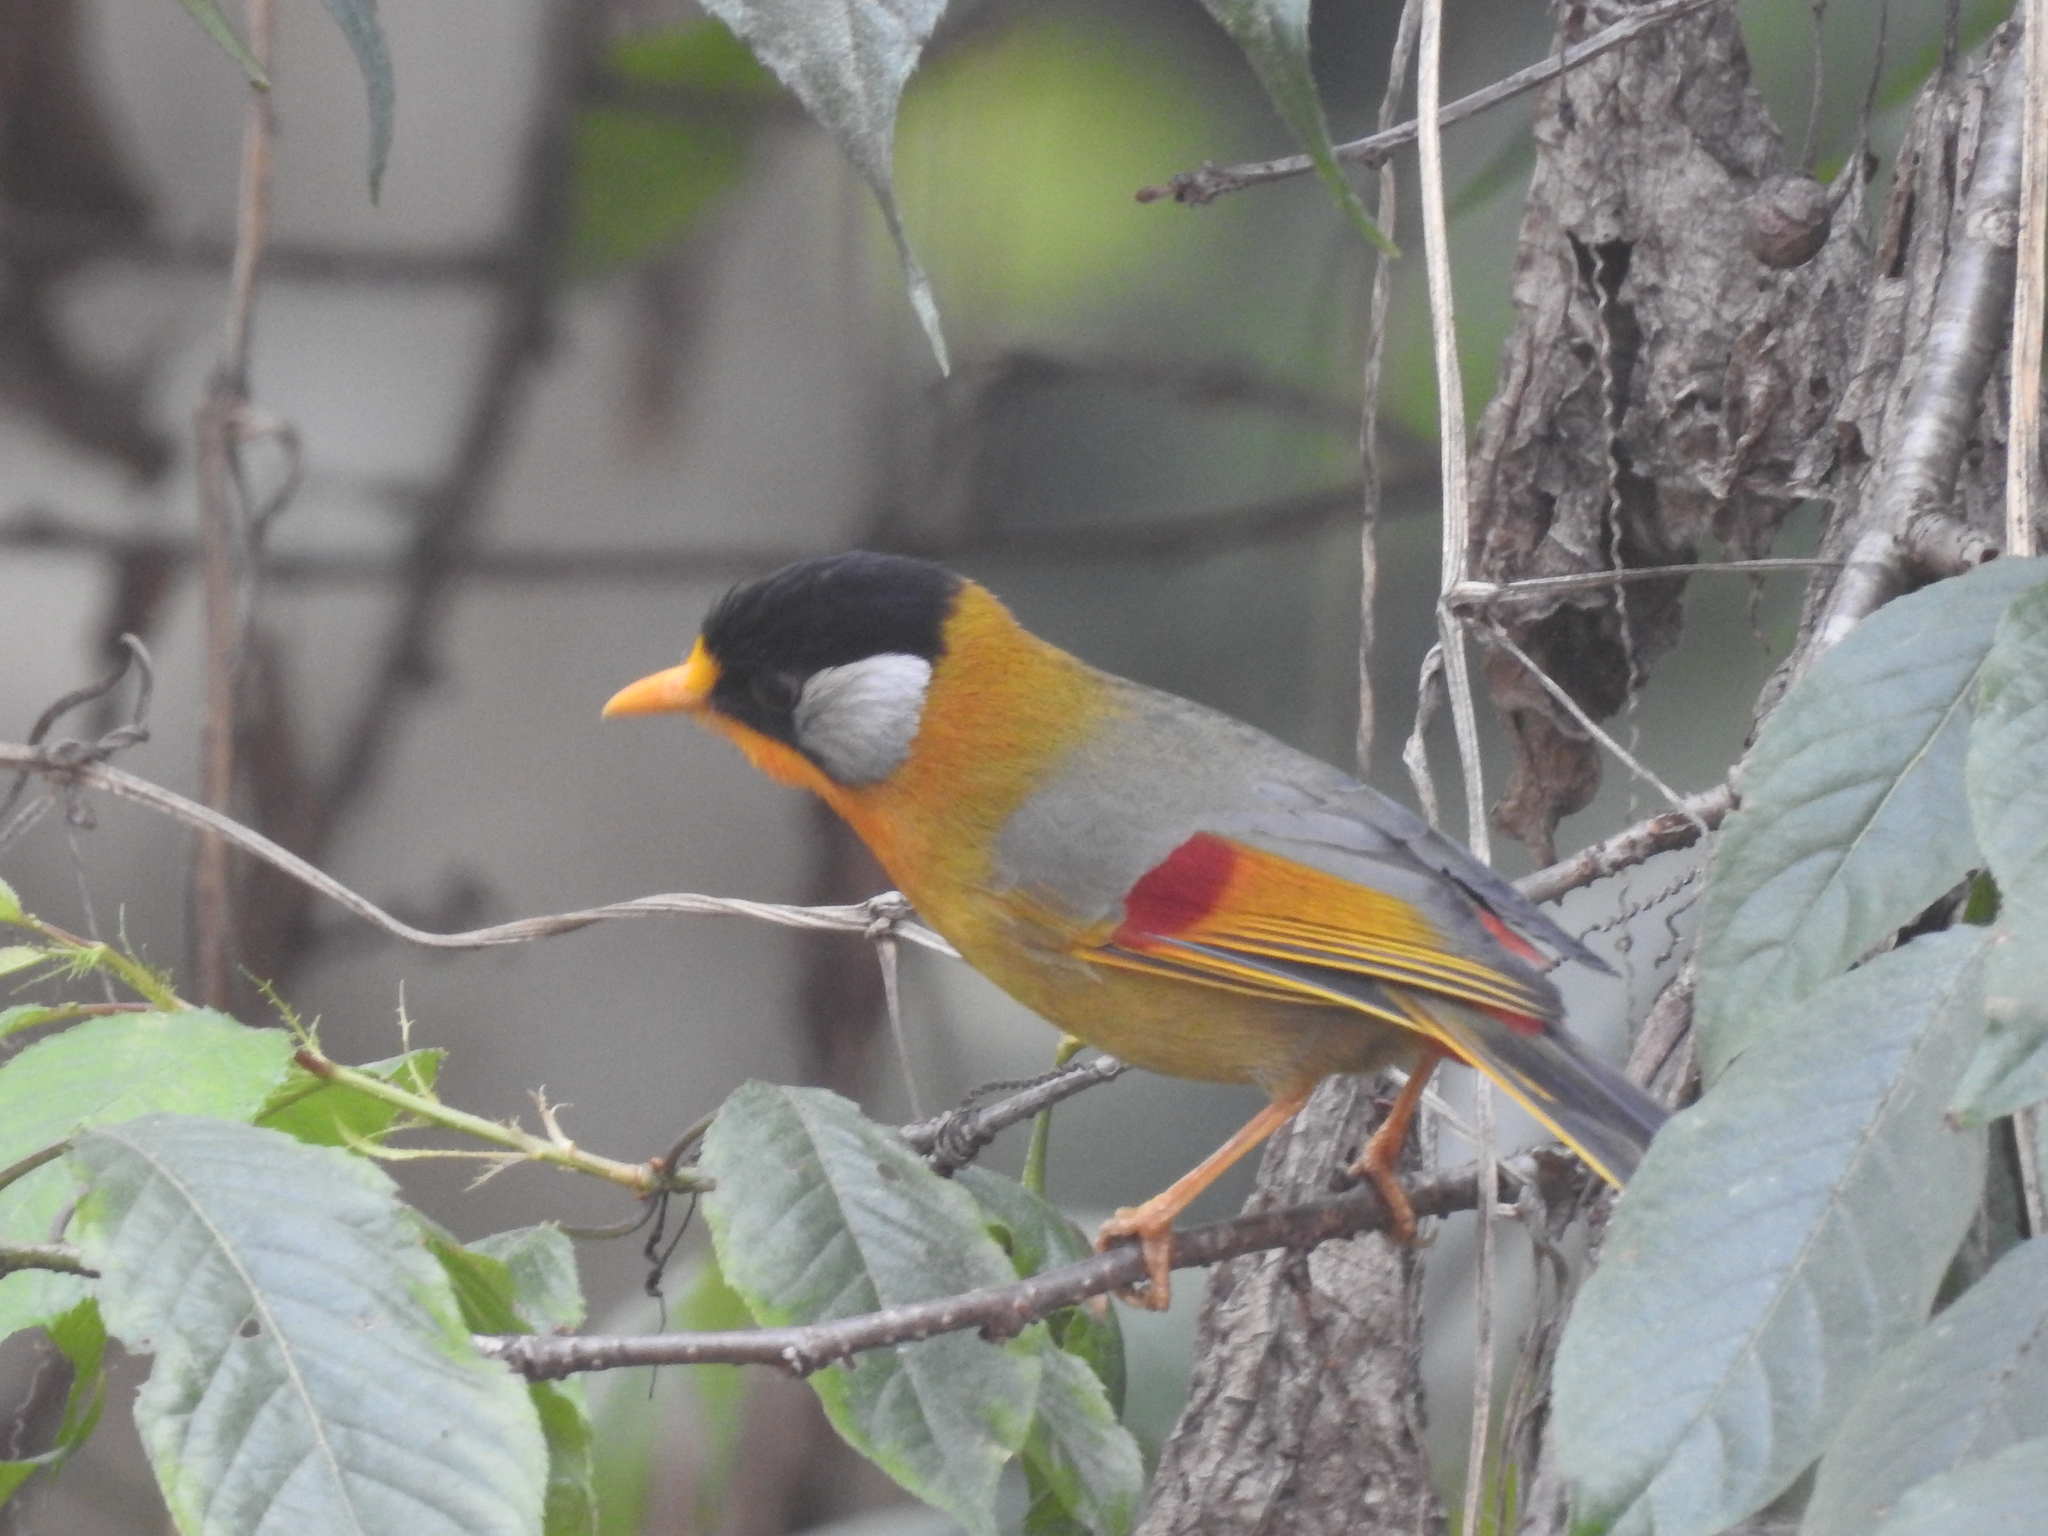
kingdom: Animalia
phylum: Chordata
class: Aves
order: Passeriformes
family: Leiothrichidae
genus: Leiothrix
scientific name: Leiothrix argentauris
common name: Silver-eared mesia
